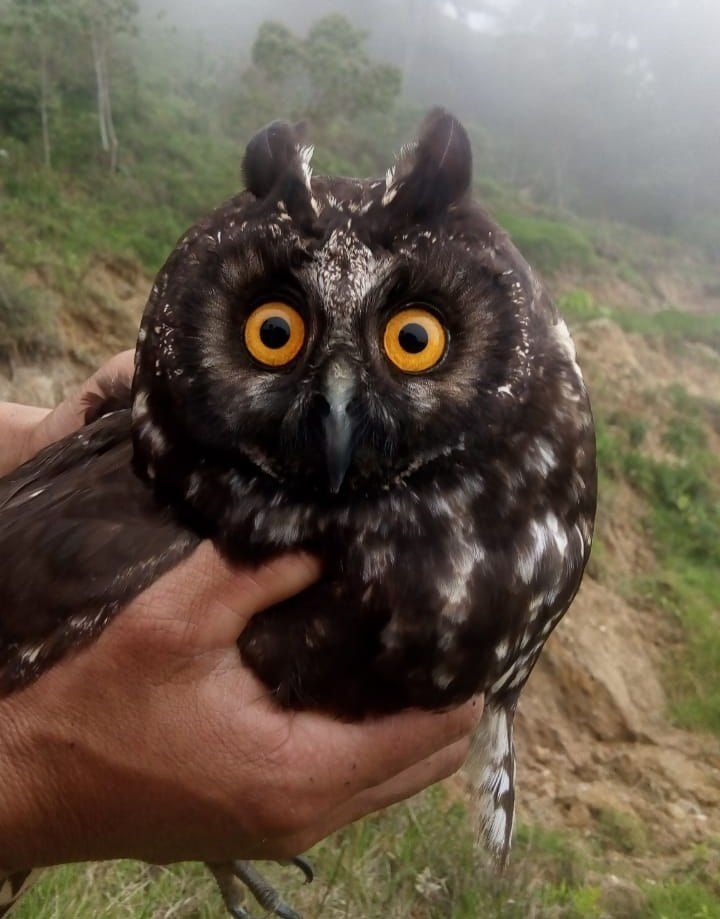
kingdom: Animalia
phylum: Chordata
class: Aves
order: Strigiformes
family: Strigidae
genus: Asio
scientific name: Asio stygius
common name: Stygian owl
